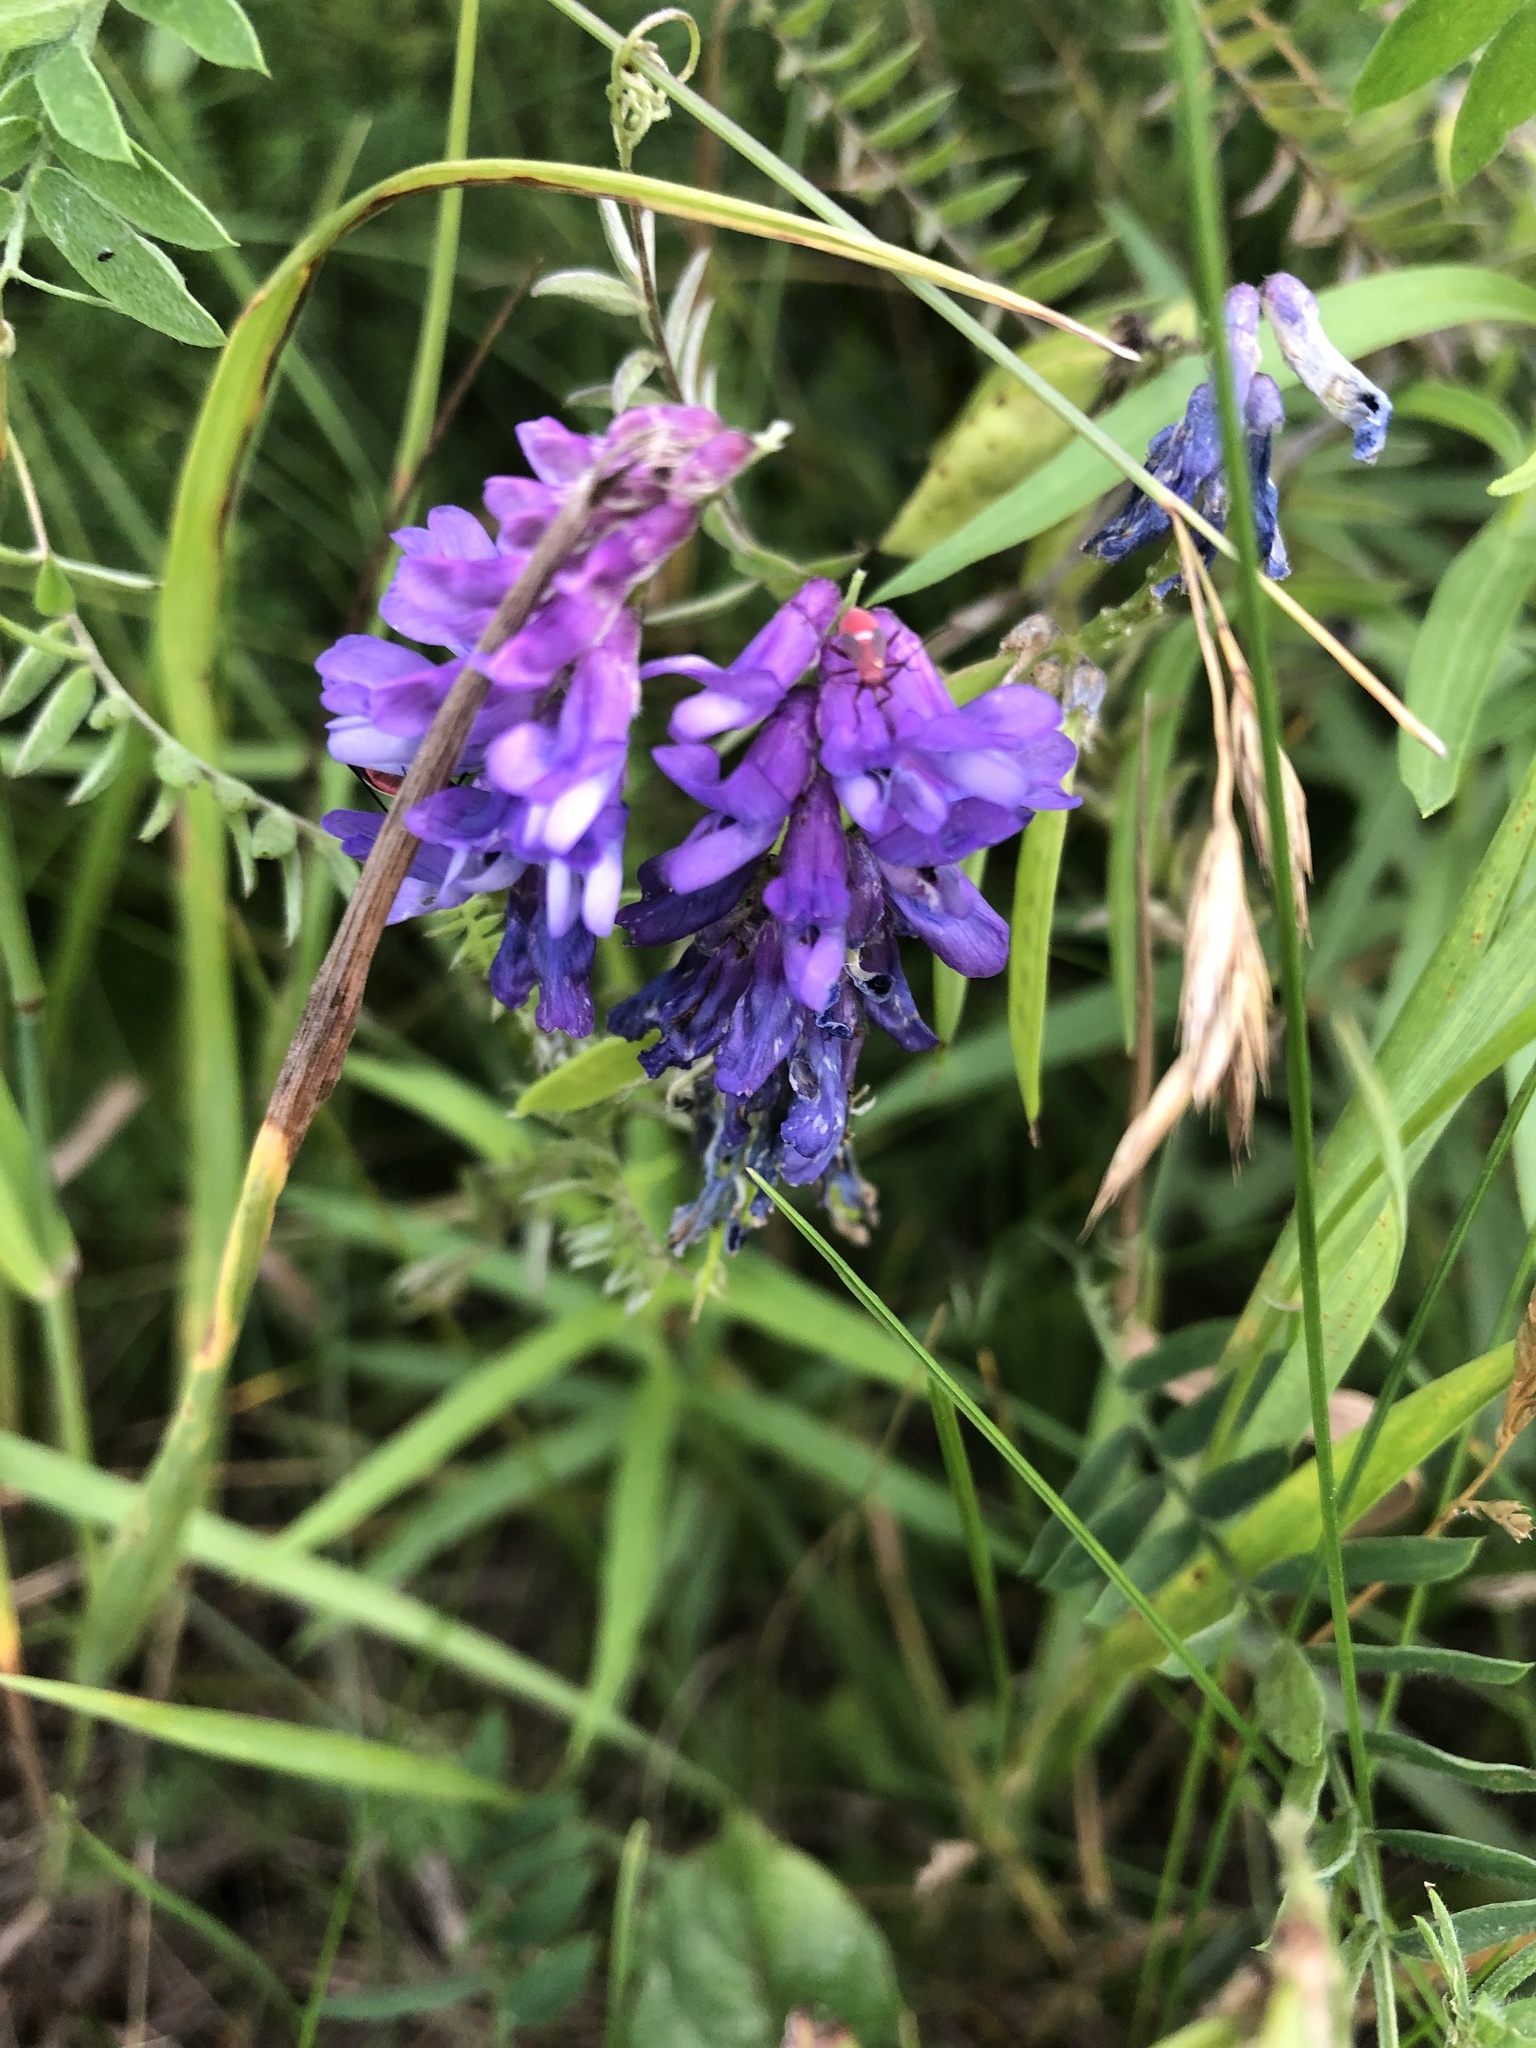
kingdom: Plantae
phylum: Tracheophyta
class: Magnoliopsida
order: Fabales
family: Fabaceae
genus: Vicia
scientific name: Vicia cracca
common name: Bird vetch
